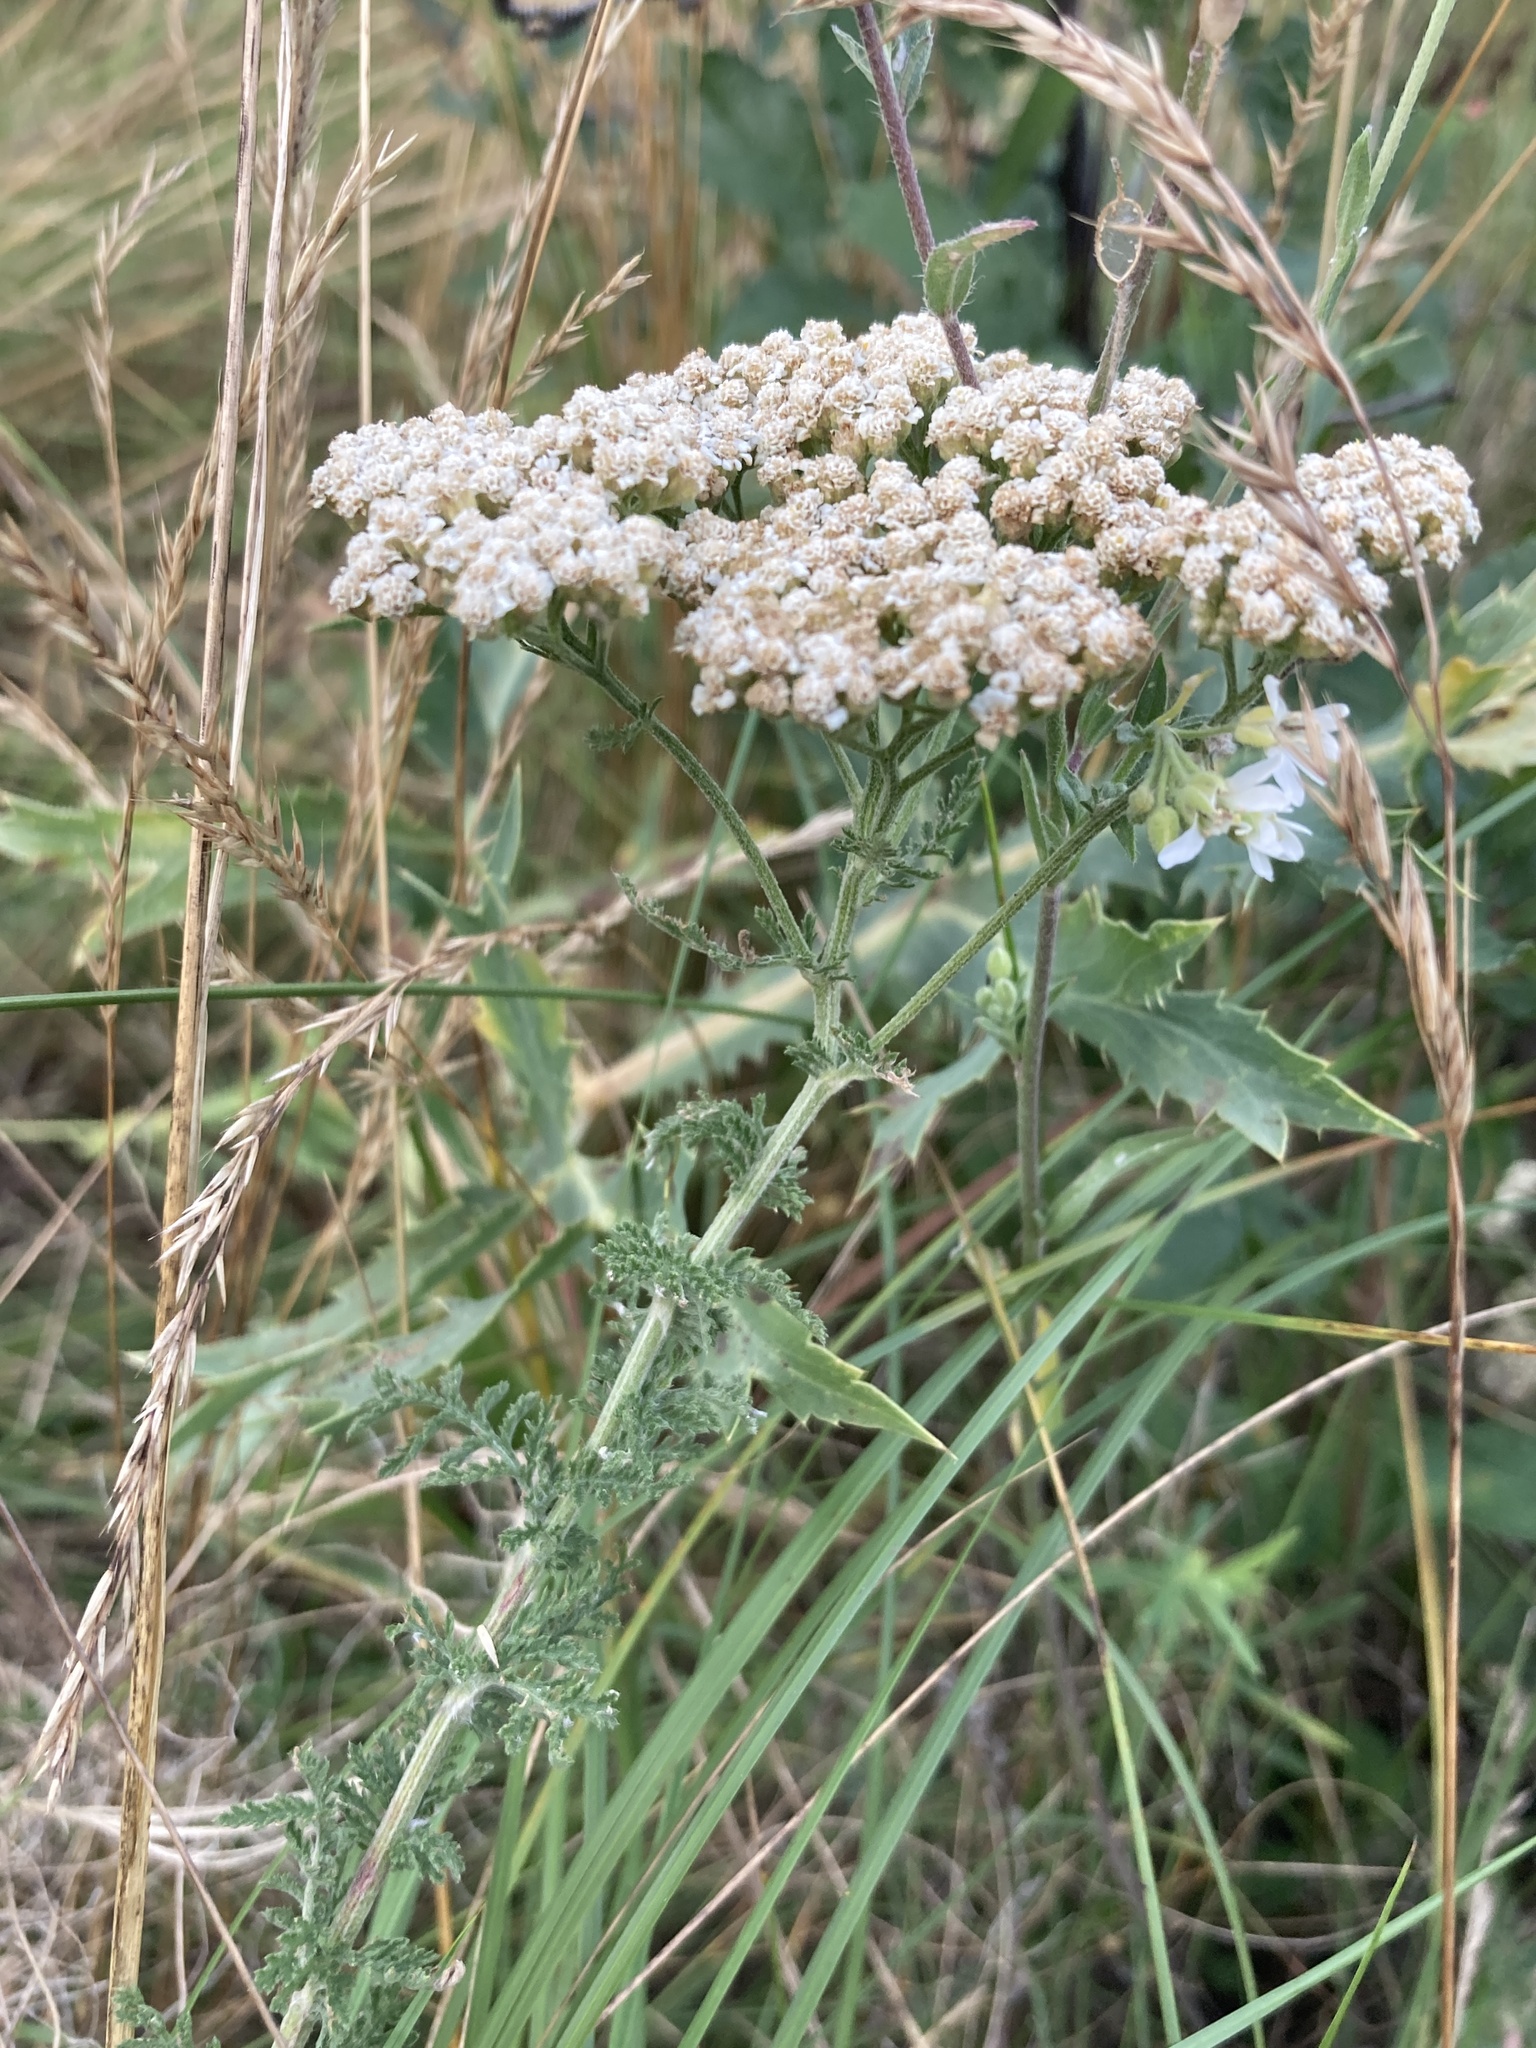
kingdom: Plantae
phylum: Tracheophyta
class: Magnoliopsida
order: Asterales
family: Asteraceae
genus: Achillea
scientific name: Achillea nobilis
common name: Noble yarrow
